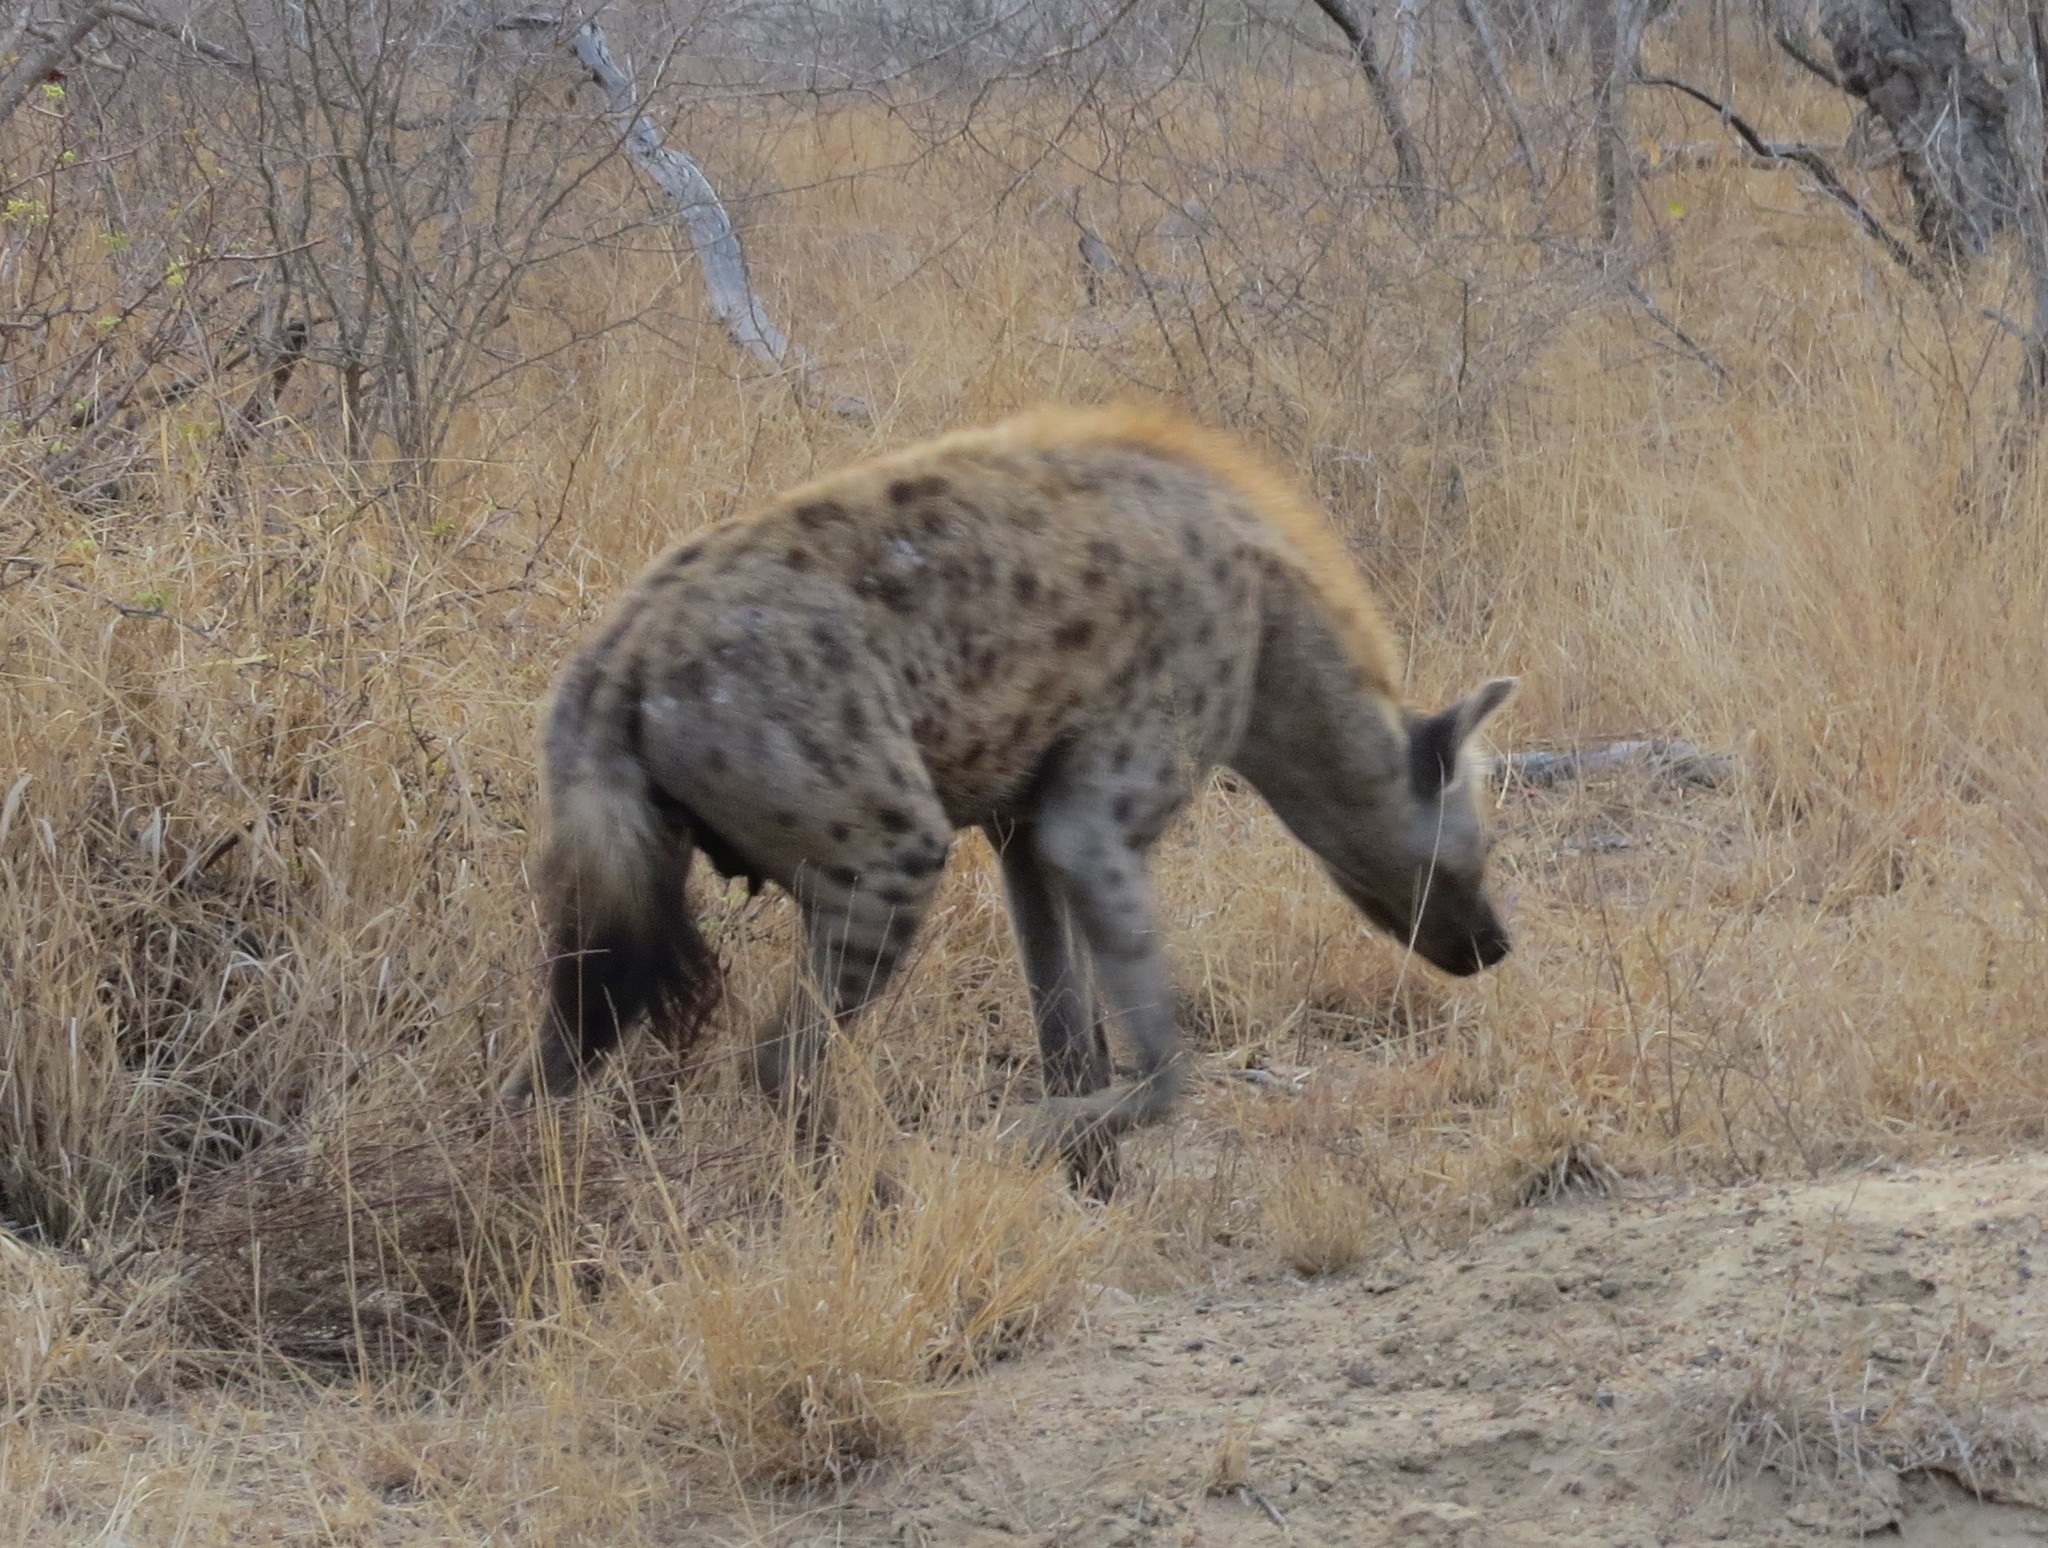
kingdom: Animalia
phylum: Chordata
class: Mammalia
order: Carnivora
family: Hyaenidae
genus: Crocuta
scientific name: Crocuta crocuta
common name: Spotted hyaena
